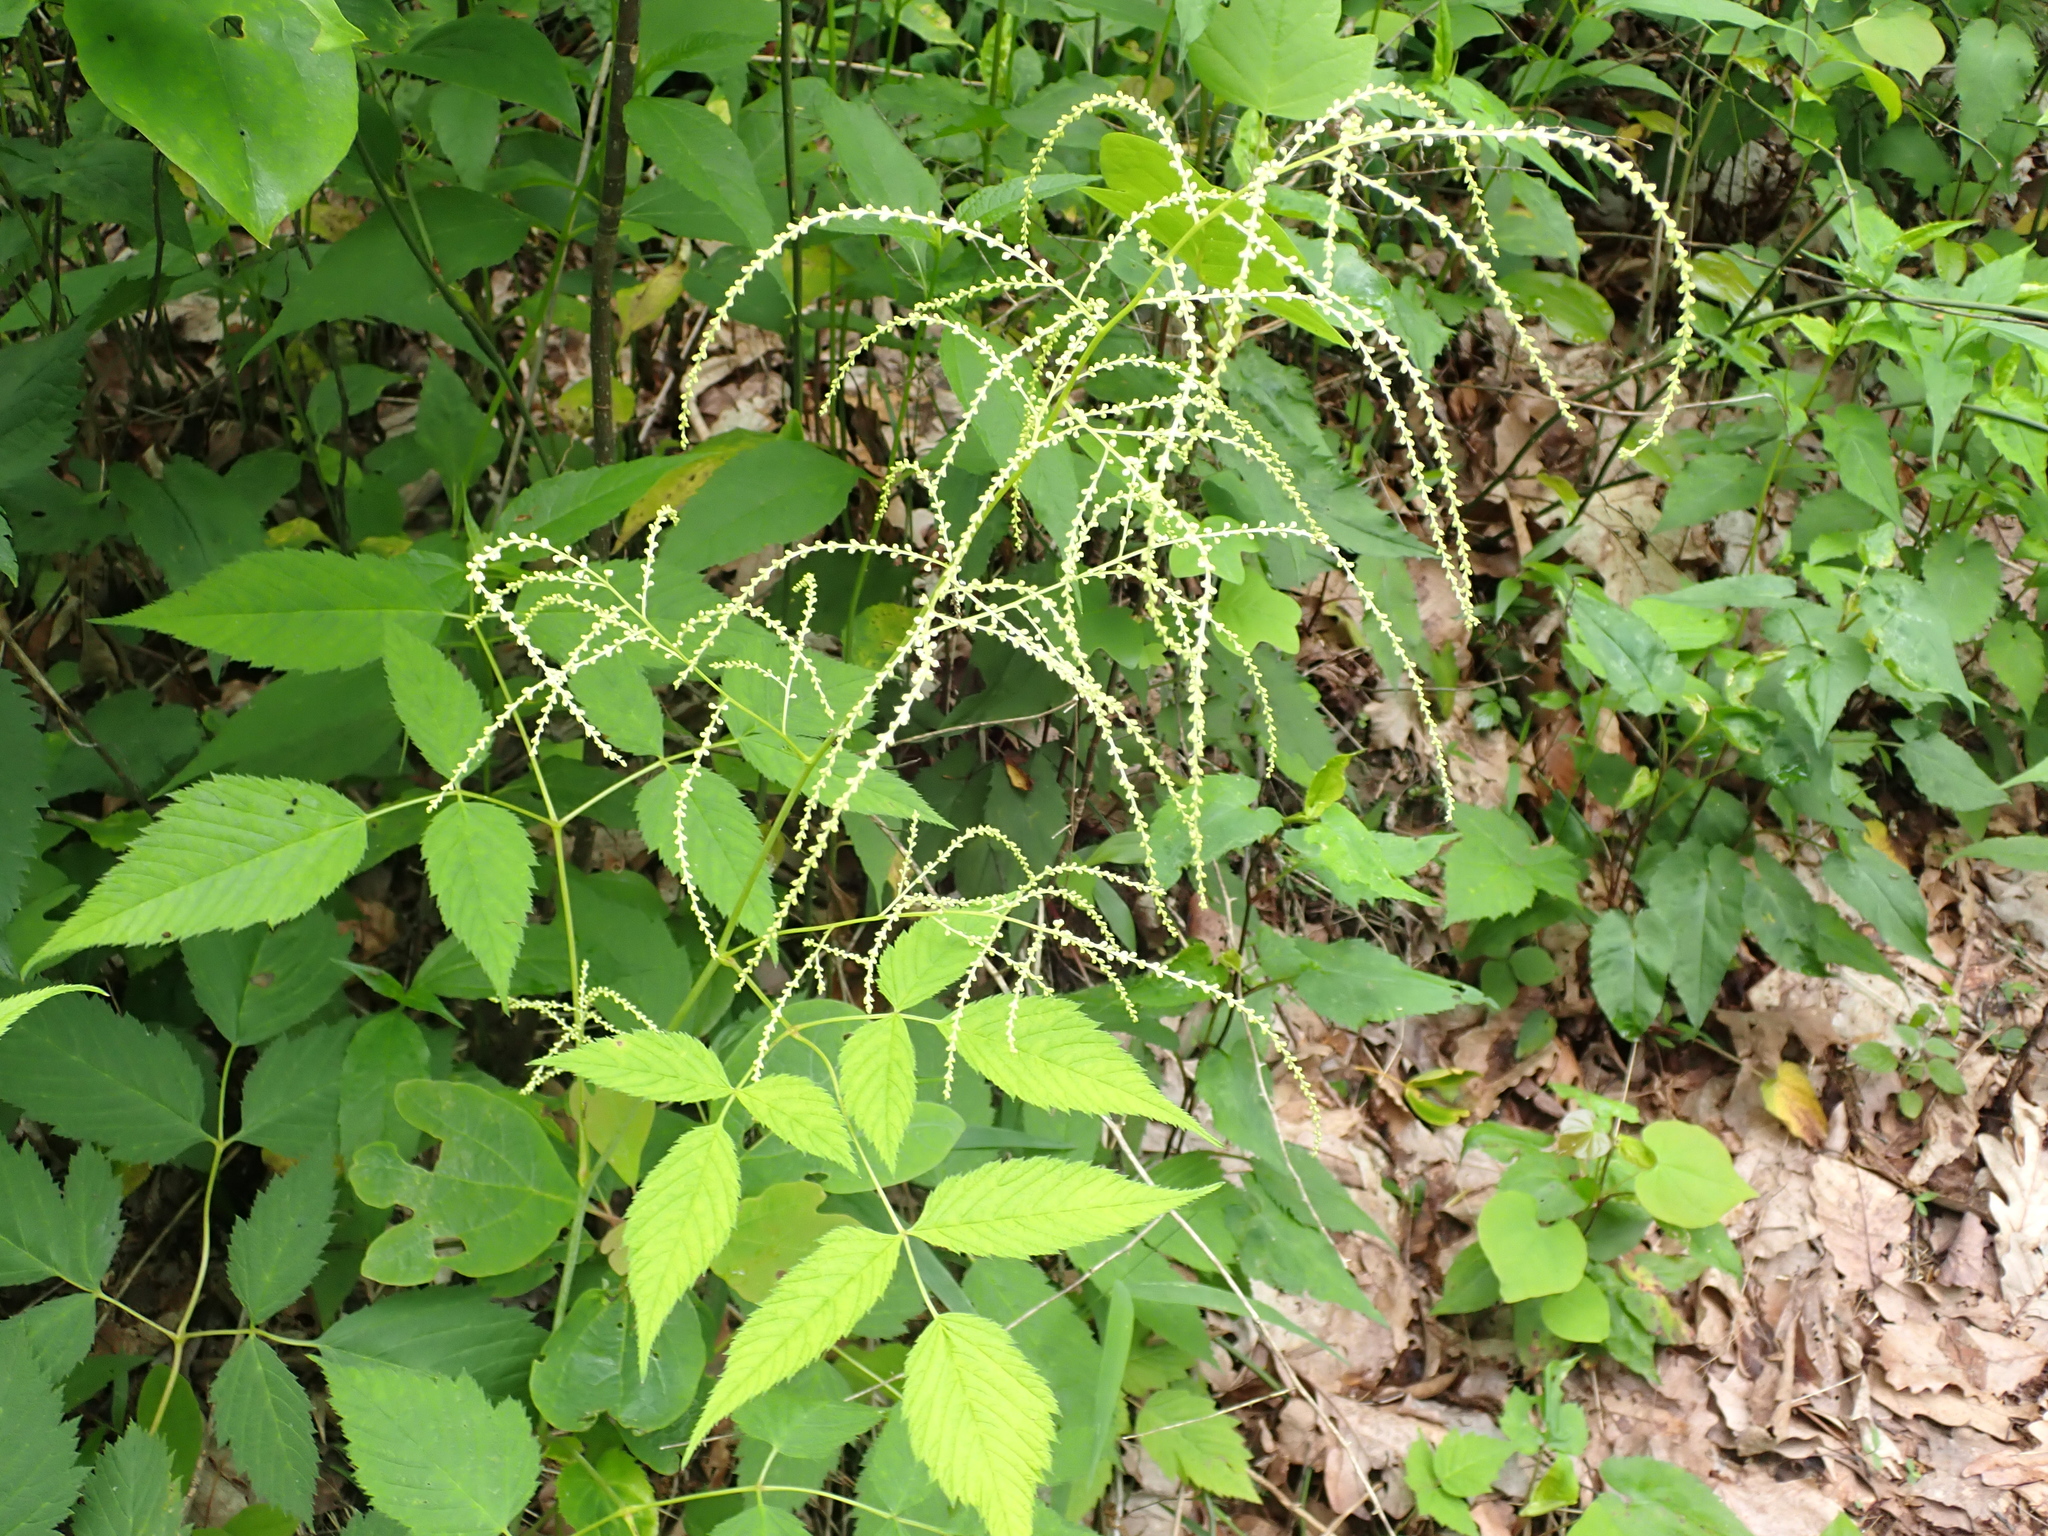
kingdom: Plantae
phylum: Tracheophyta
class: Magnoliopsida
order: Rosales
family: Rosaceae
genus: Aruncus
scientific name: Aruncus dioicus
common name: Buck's-beard
